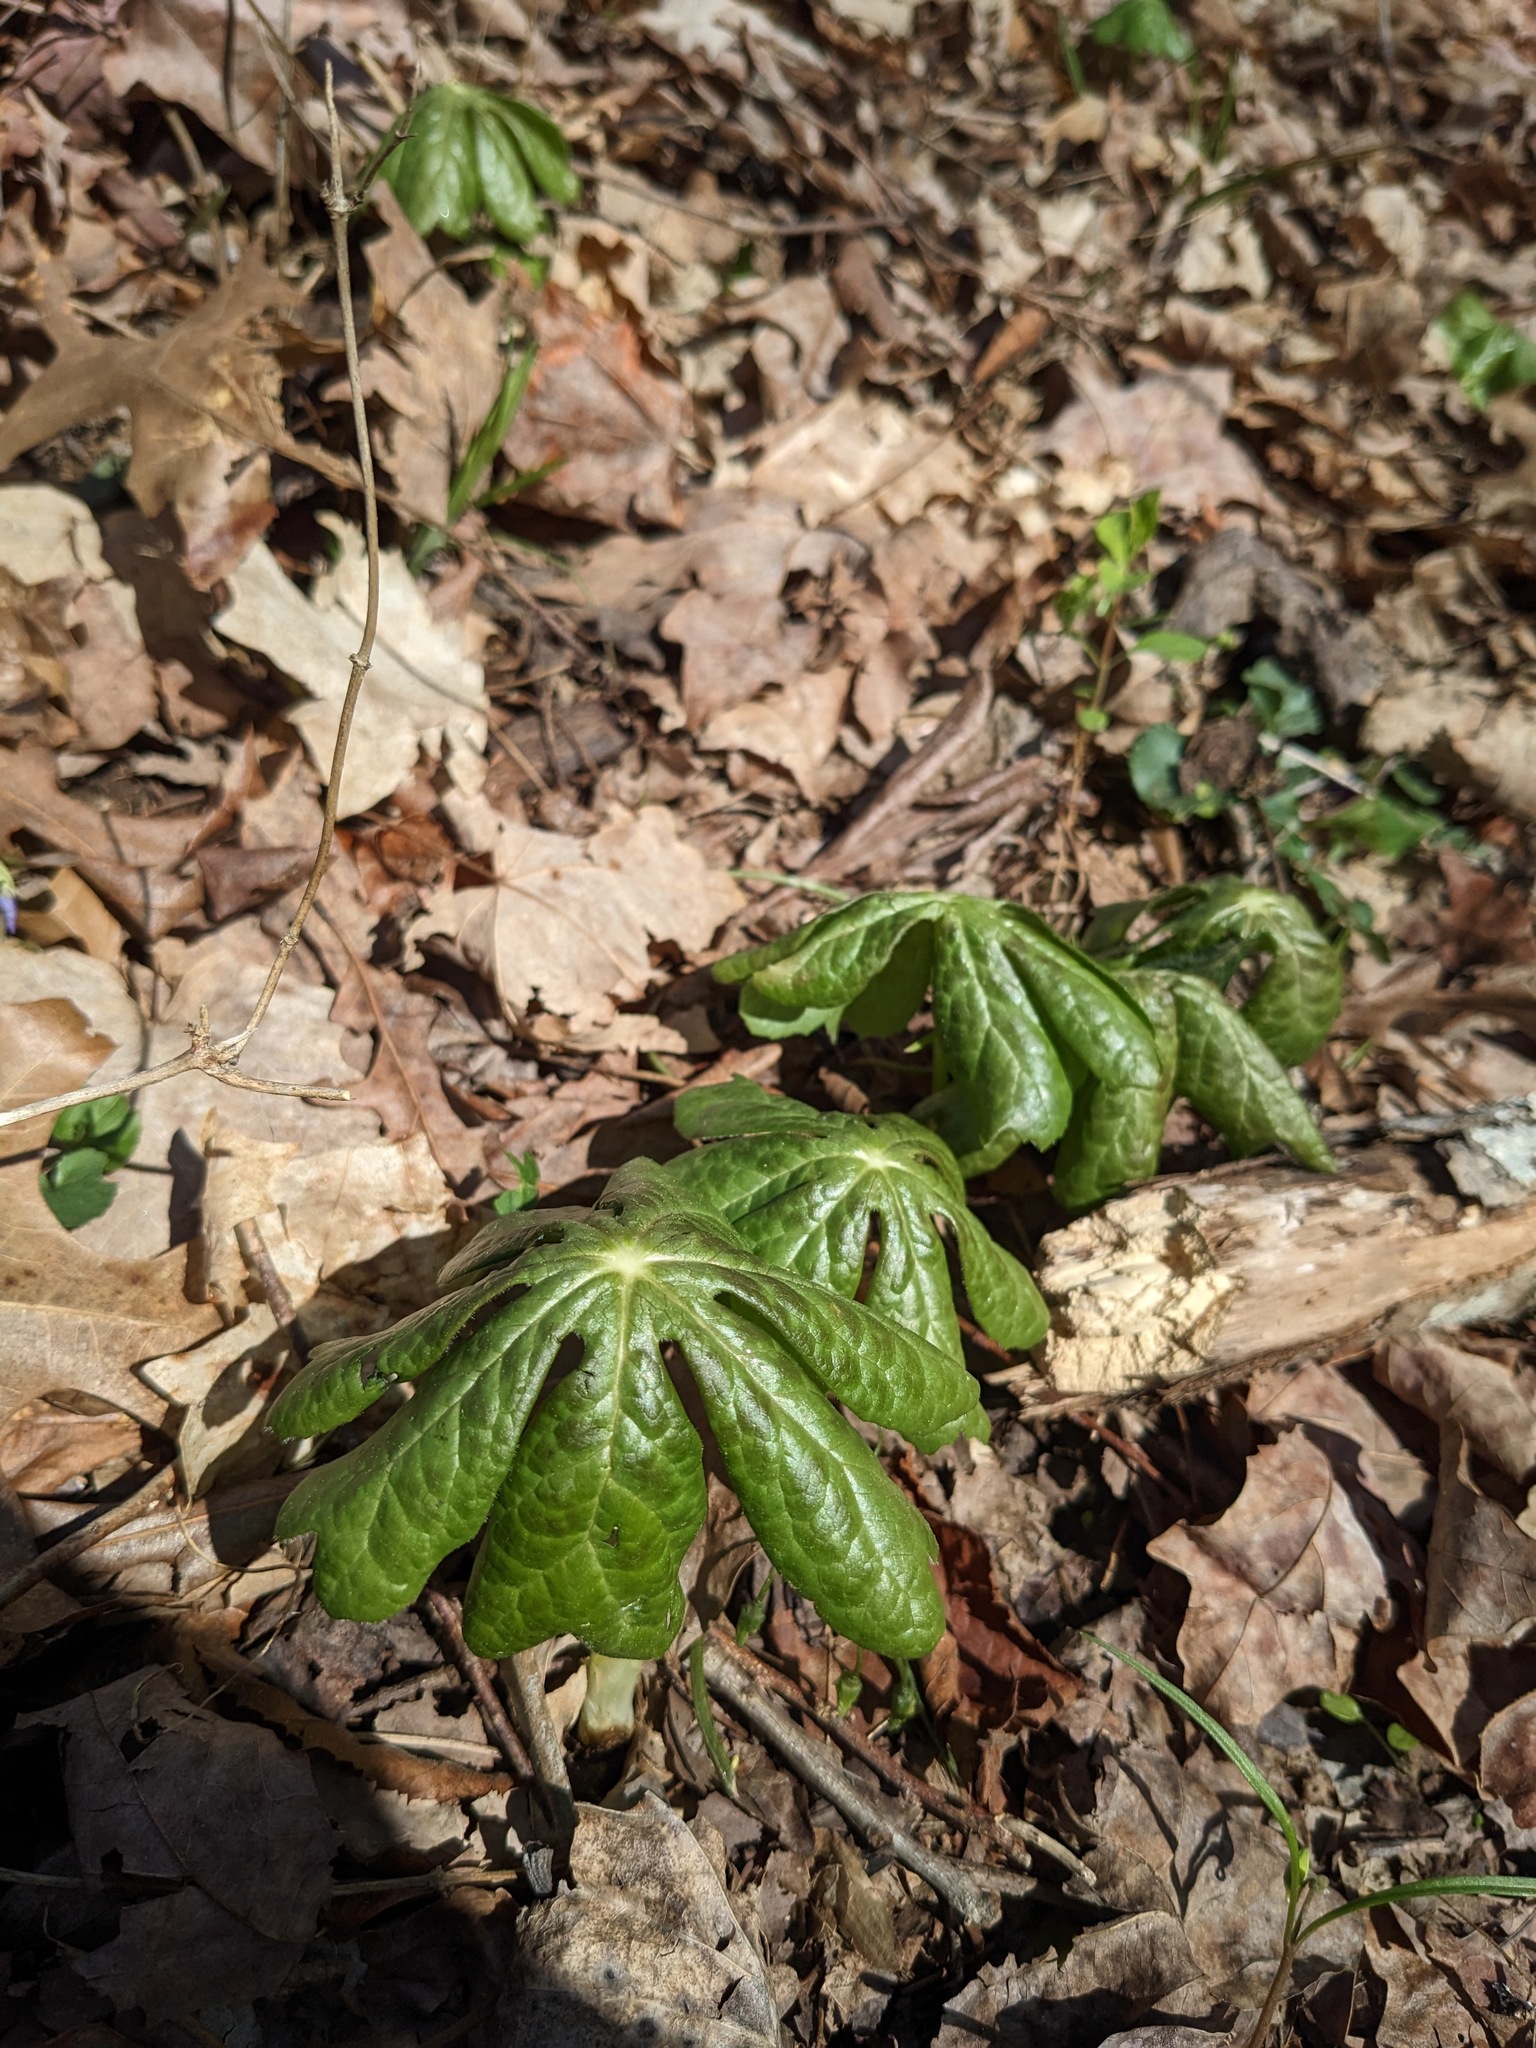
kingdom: Plantae
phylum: Tracheophyta
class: Magnoliopsida
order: Ranunculales
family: Berberidaceae
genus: Podophyllum
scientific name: Podophyllum peltatum
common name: Wild mandrake
